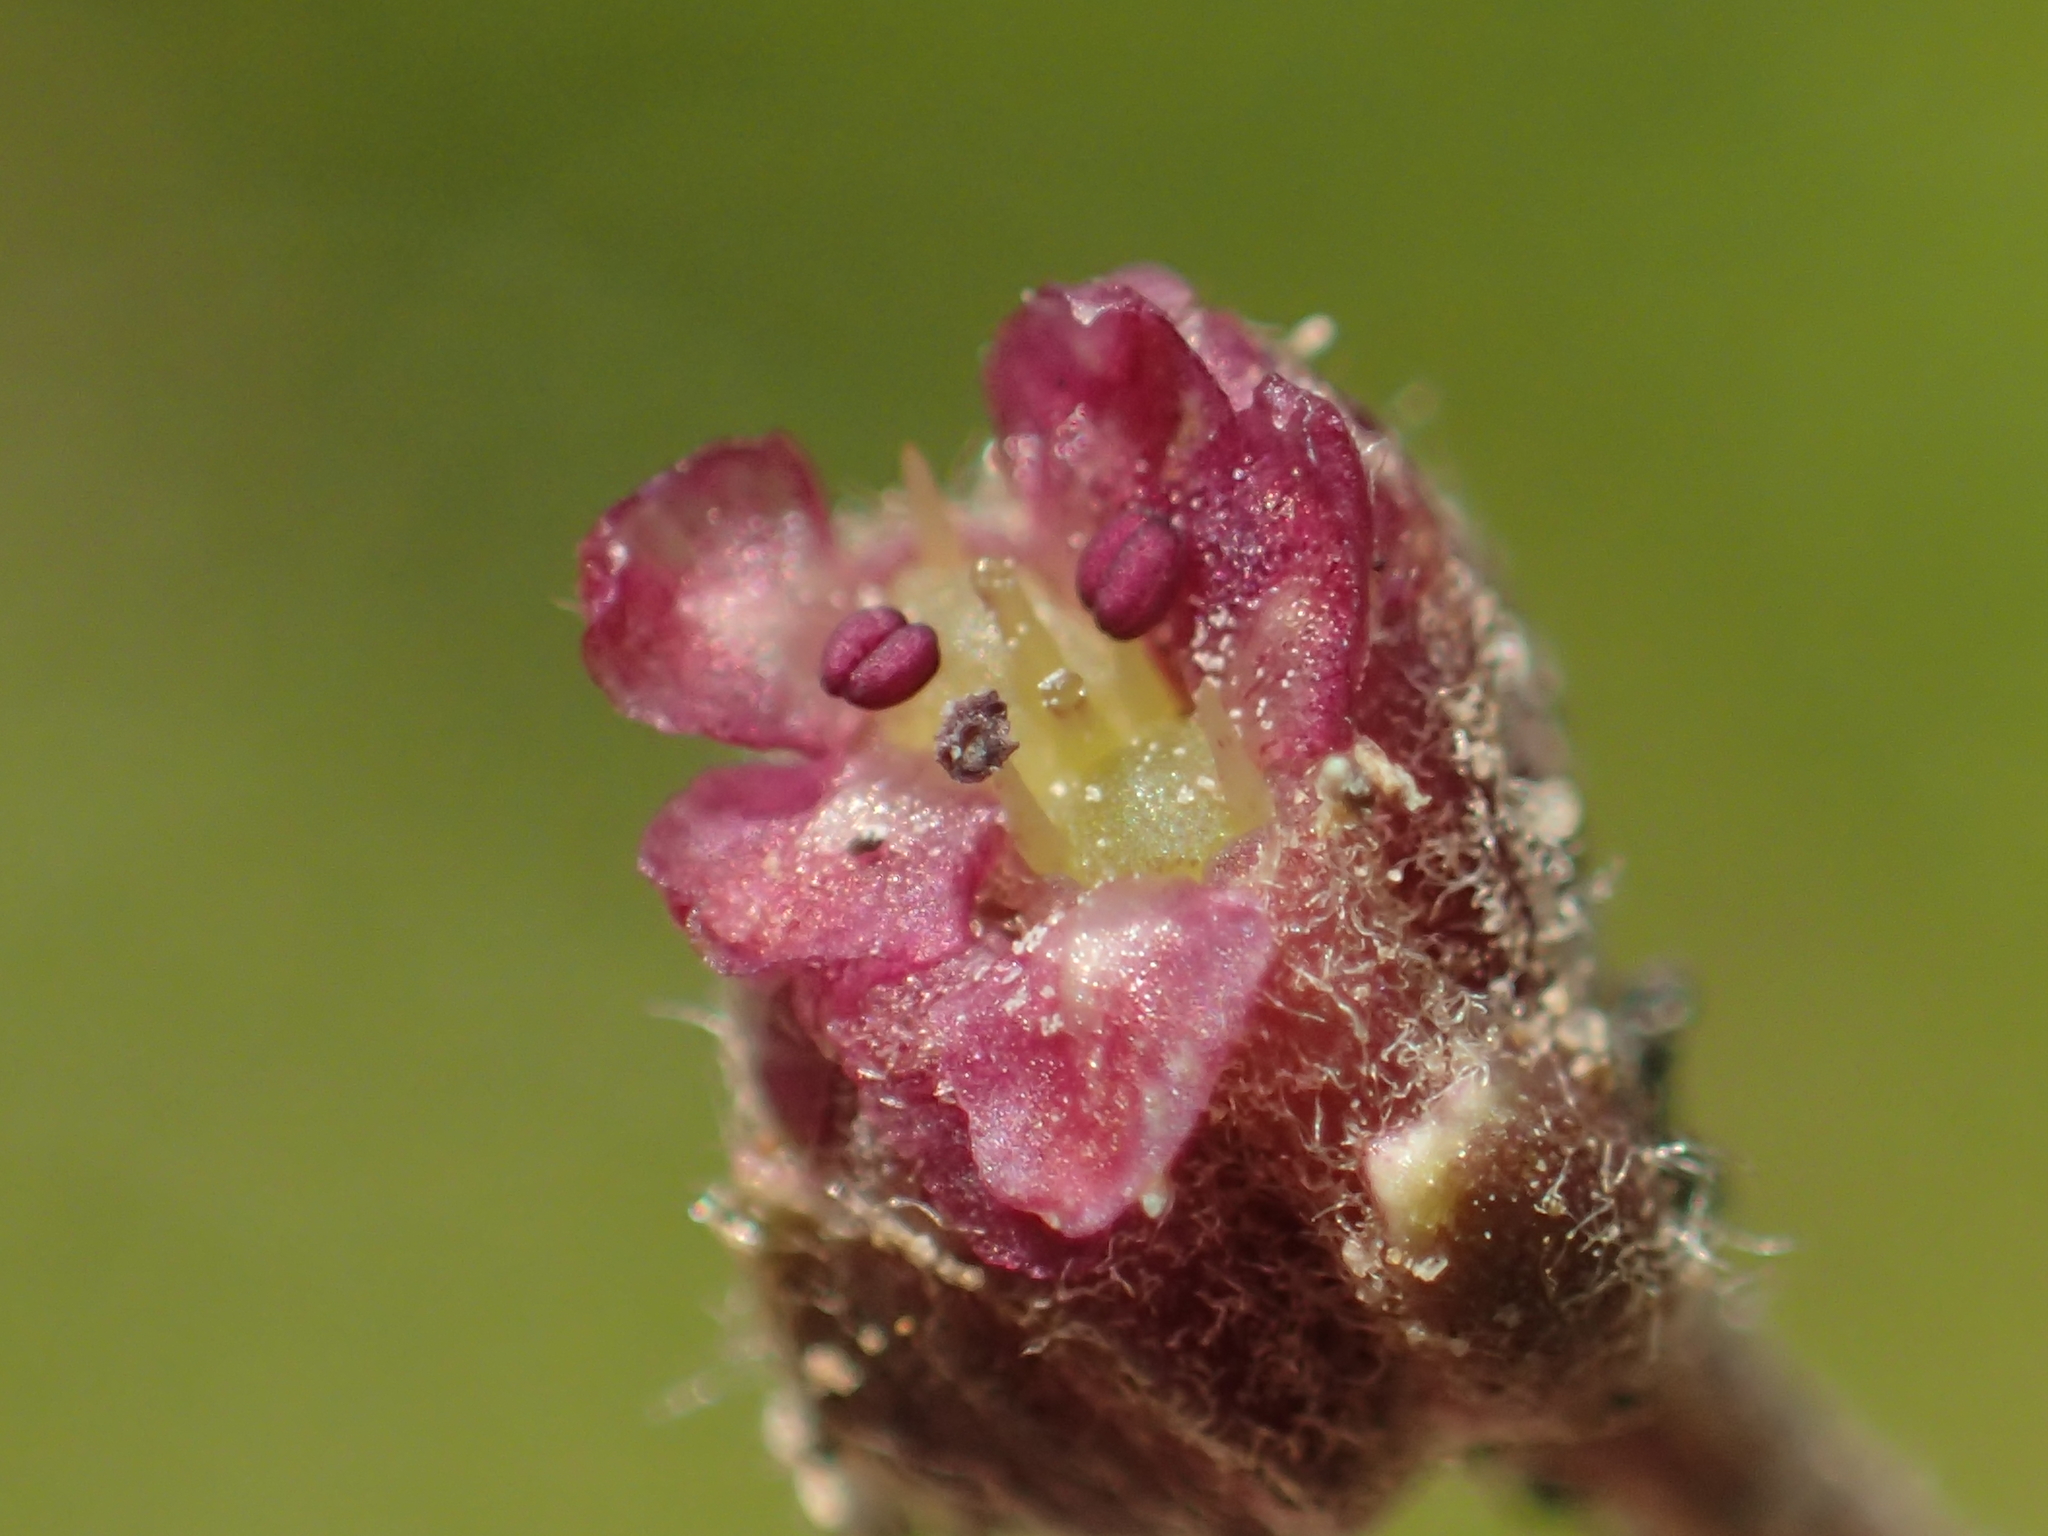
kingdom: Plantae
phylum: Tracheophyta
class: Magnoliopsida
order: Apiales
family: Apiaceae
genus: Centella
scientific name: Centella asiatica
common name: Spadeleaf
